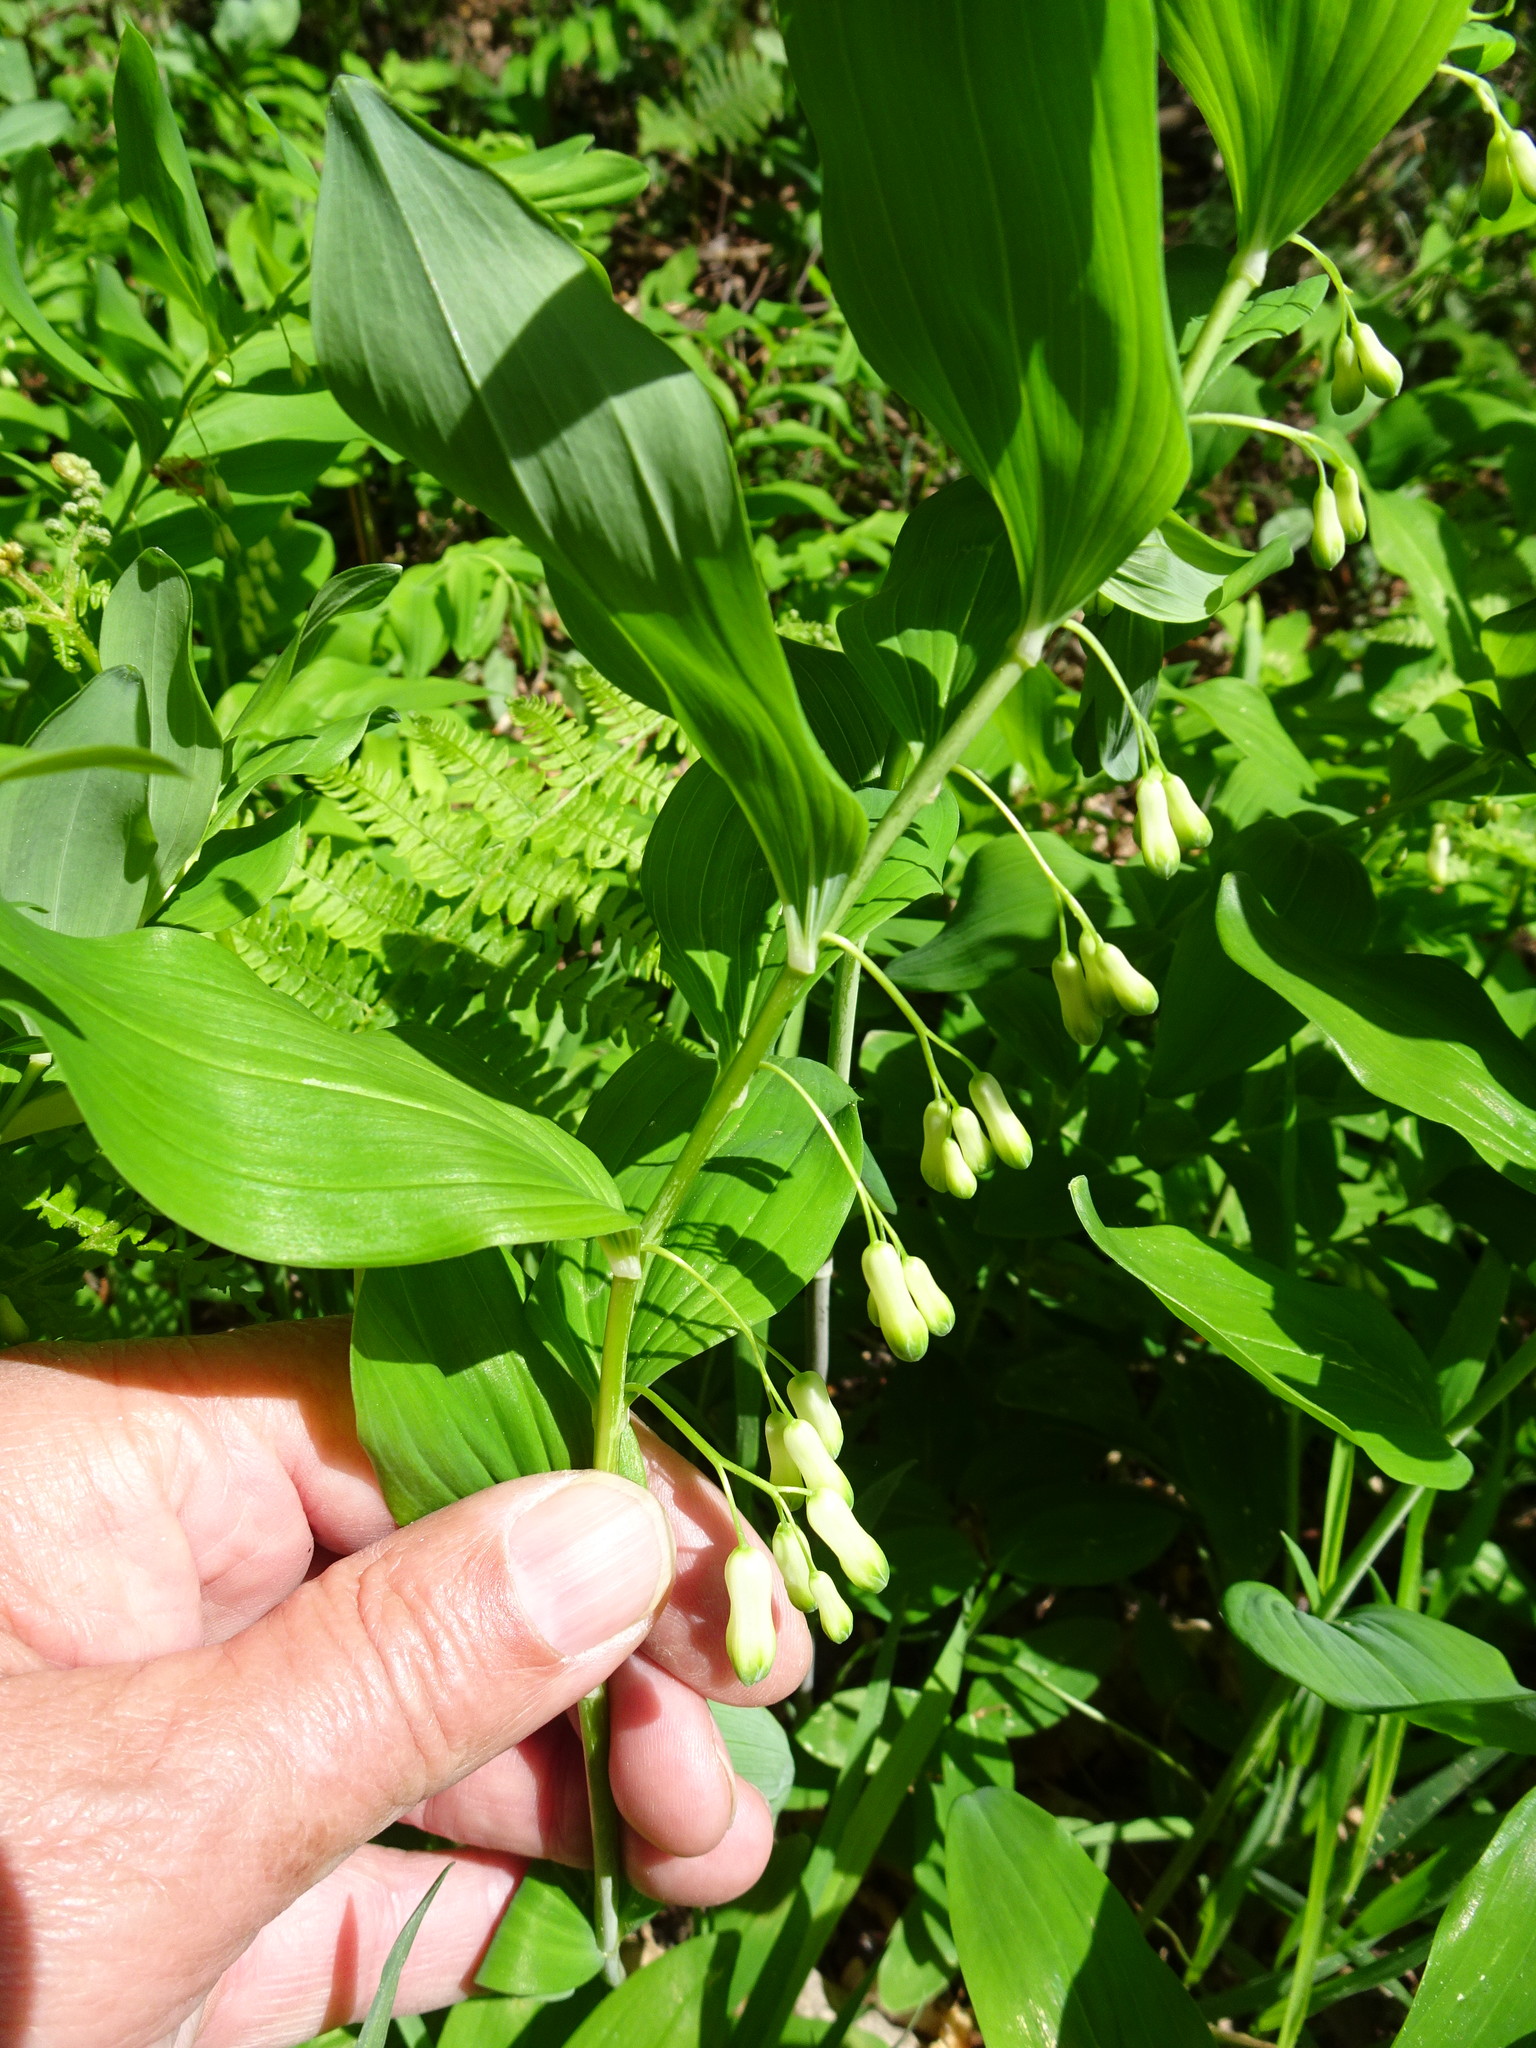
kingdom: Plantae
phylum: Tracheophyta
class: Liliopsida
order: Asparagales
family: Asparagaceae
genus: Polygonatum
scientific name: Polygonatum multiflorum
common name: Solomon's-seal
